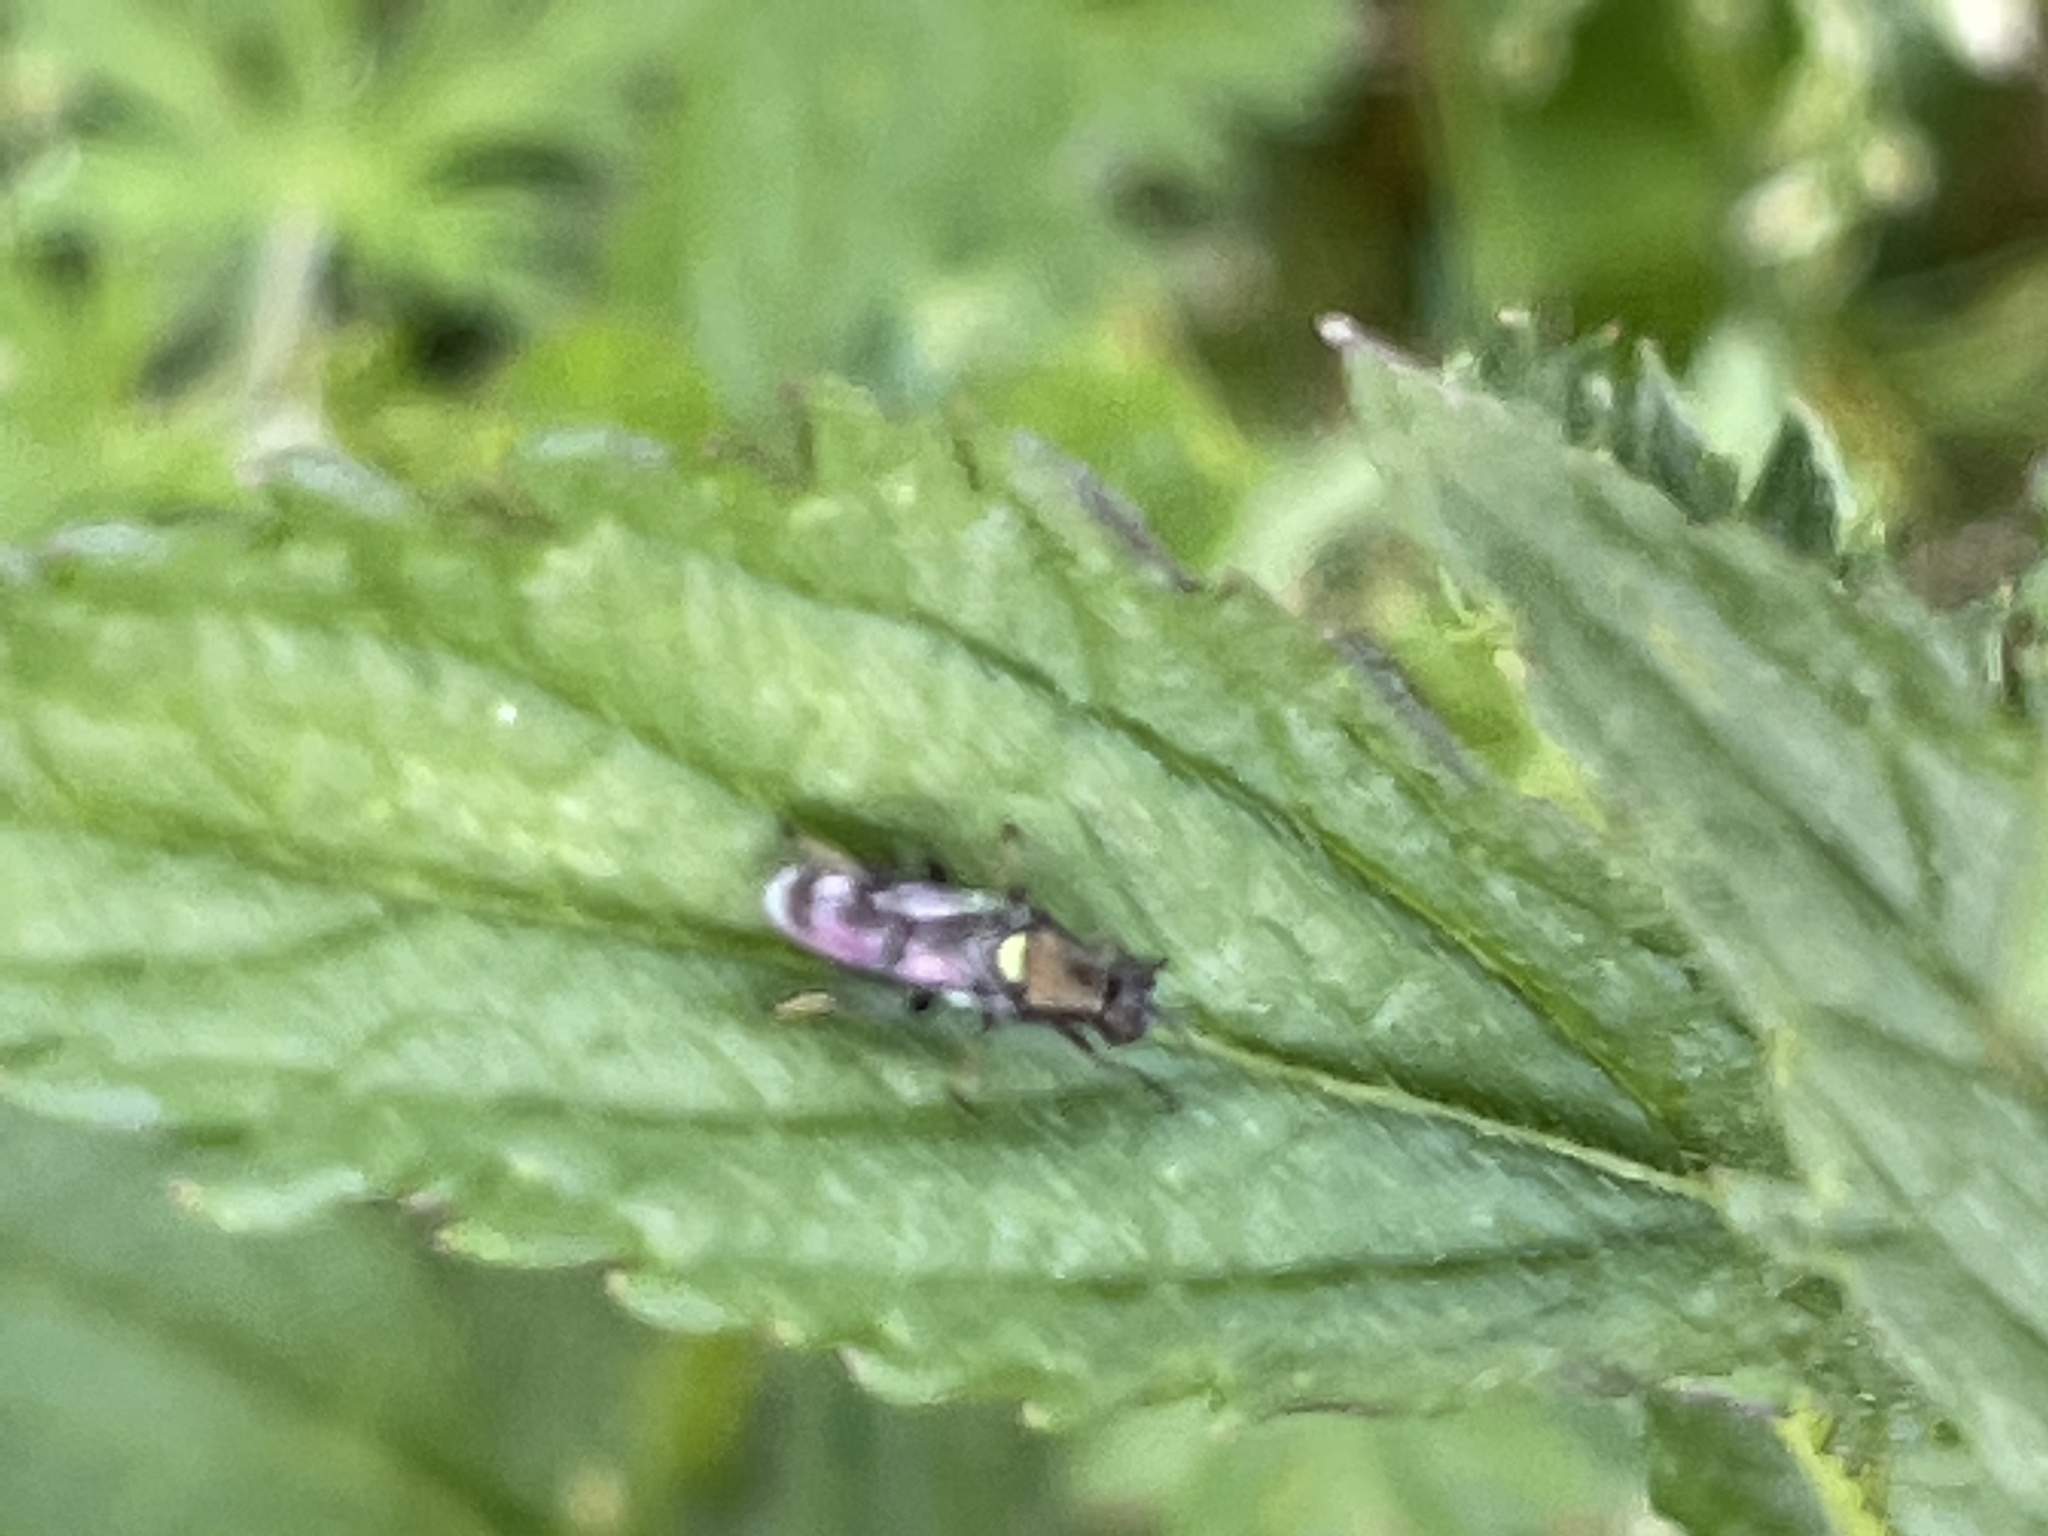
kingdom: Animalia
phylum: Arthropoda
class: Insecta
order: Diptera
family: Stratiomyidae
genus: Myxosargus
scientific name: Myxosargus nigricormis
